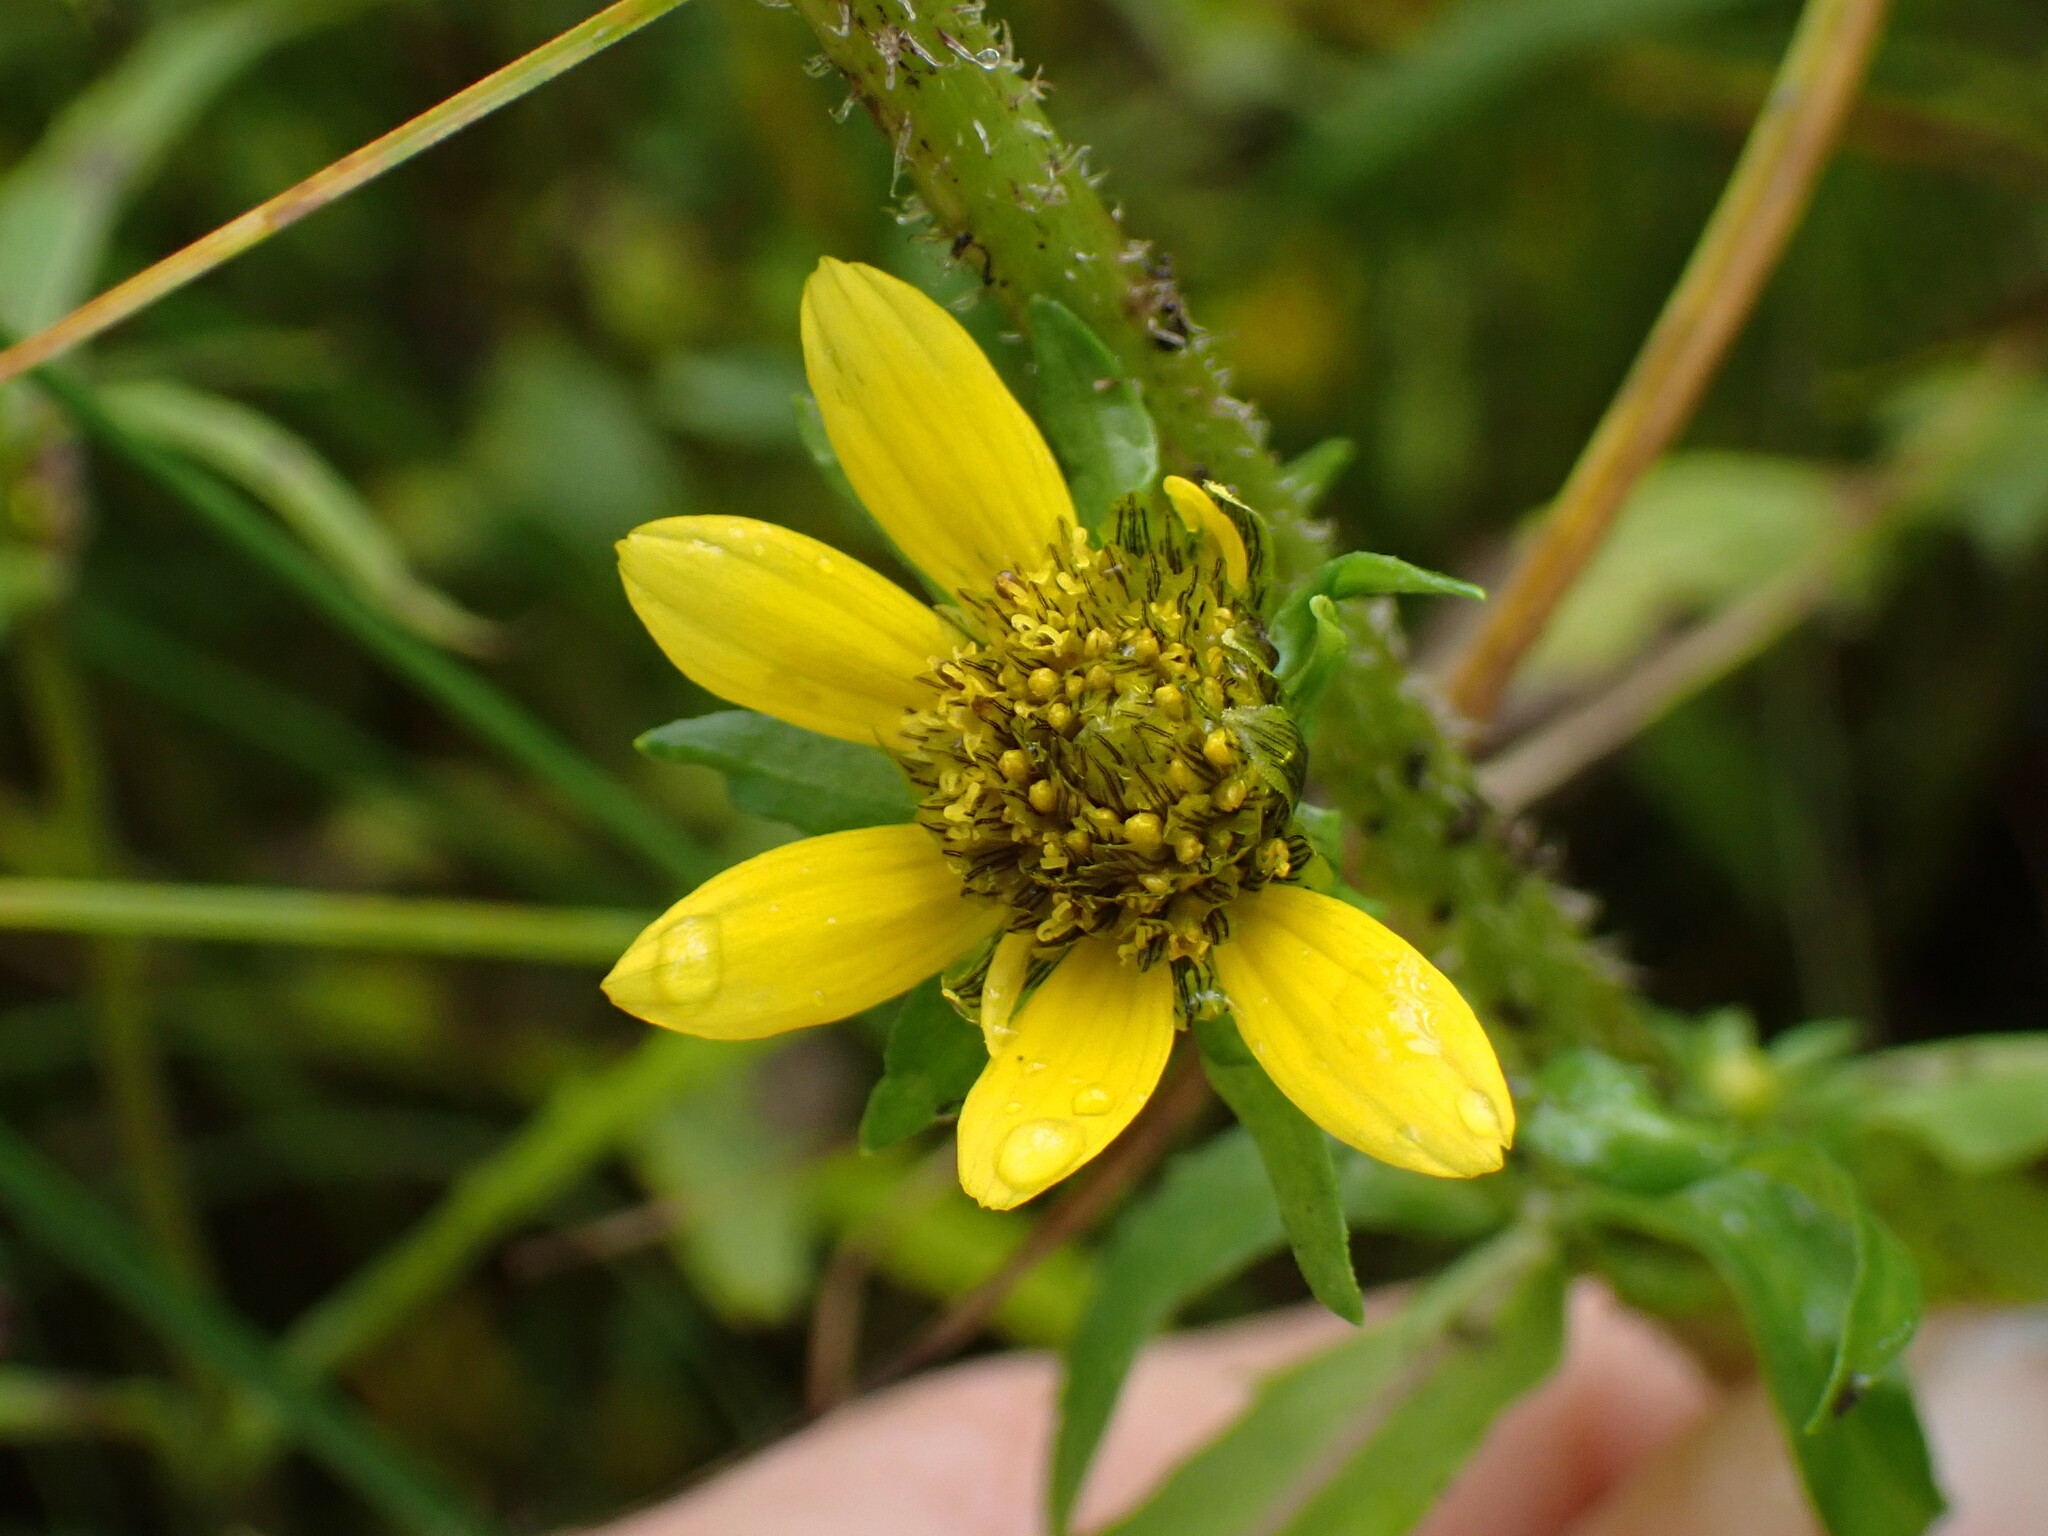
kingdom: Plantae
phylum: Tracheophyta
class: Magnoliopsida
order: Asterales
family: Asteraceae
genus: Bidens
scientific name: Bidens cernua
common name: Nodding bur-marigold
